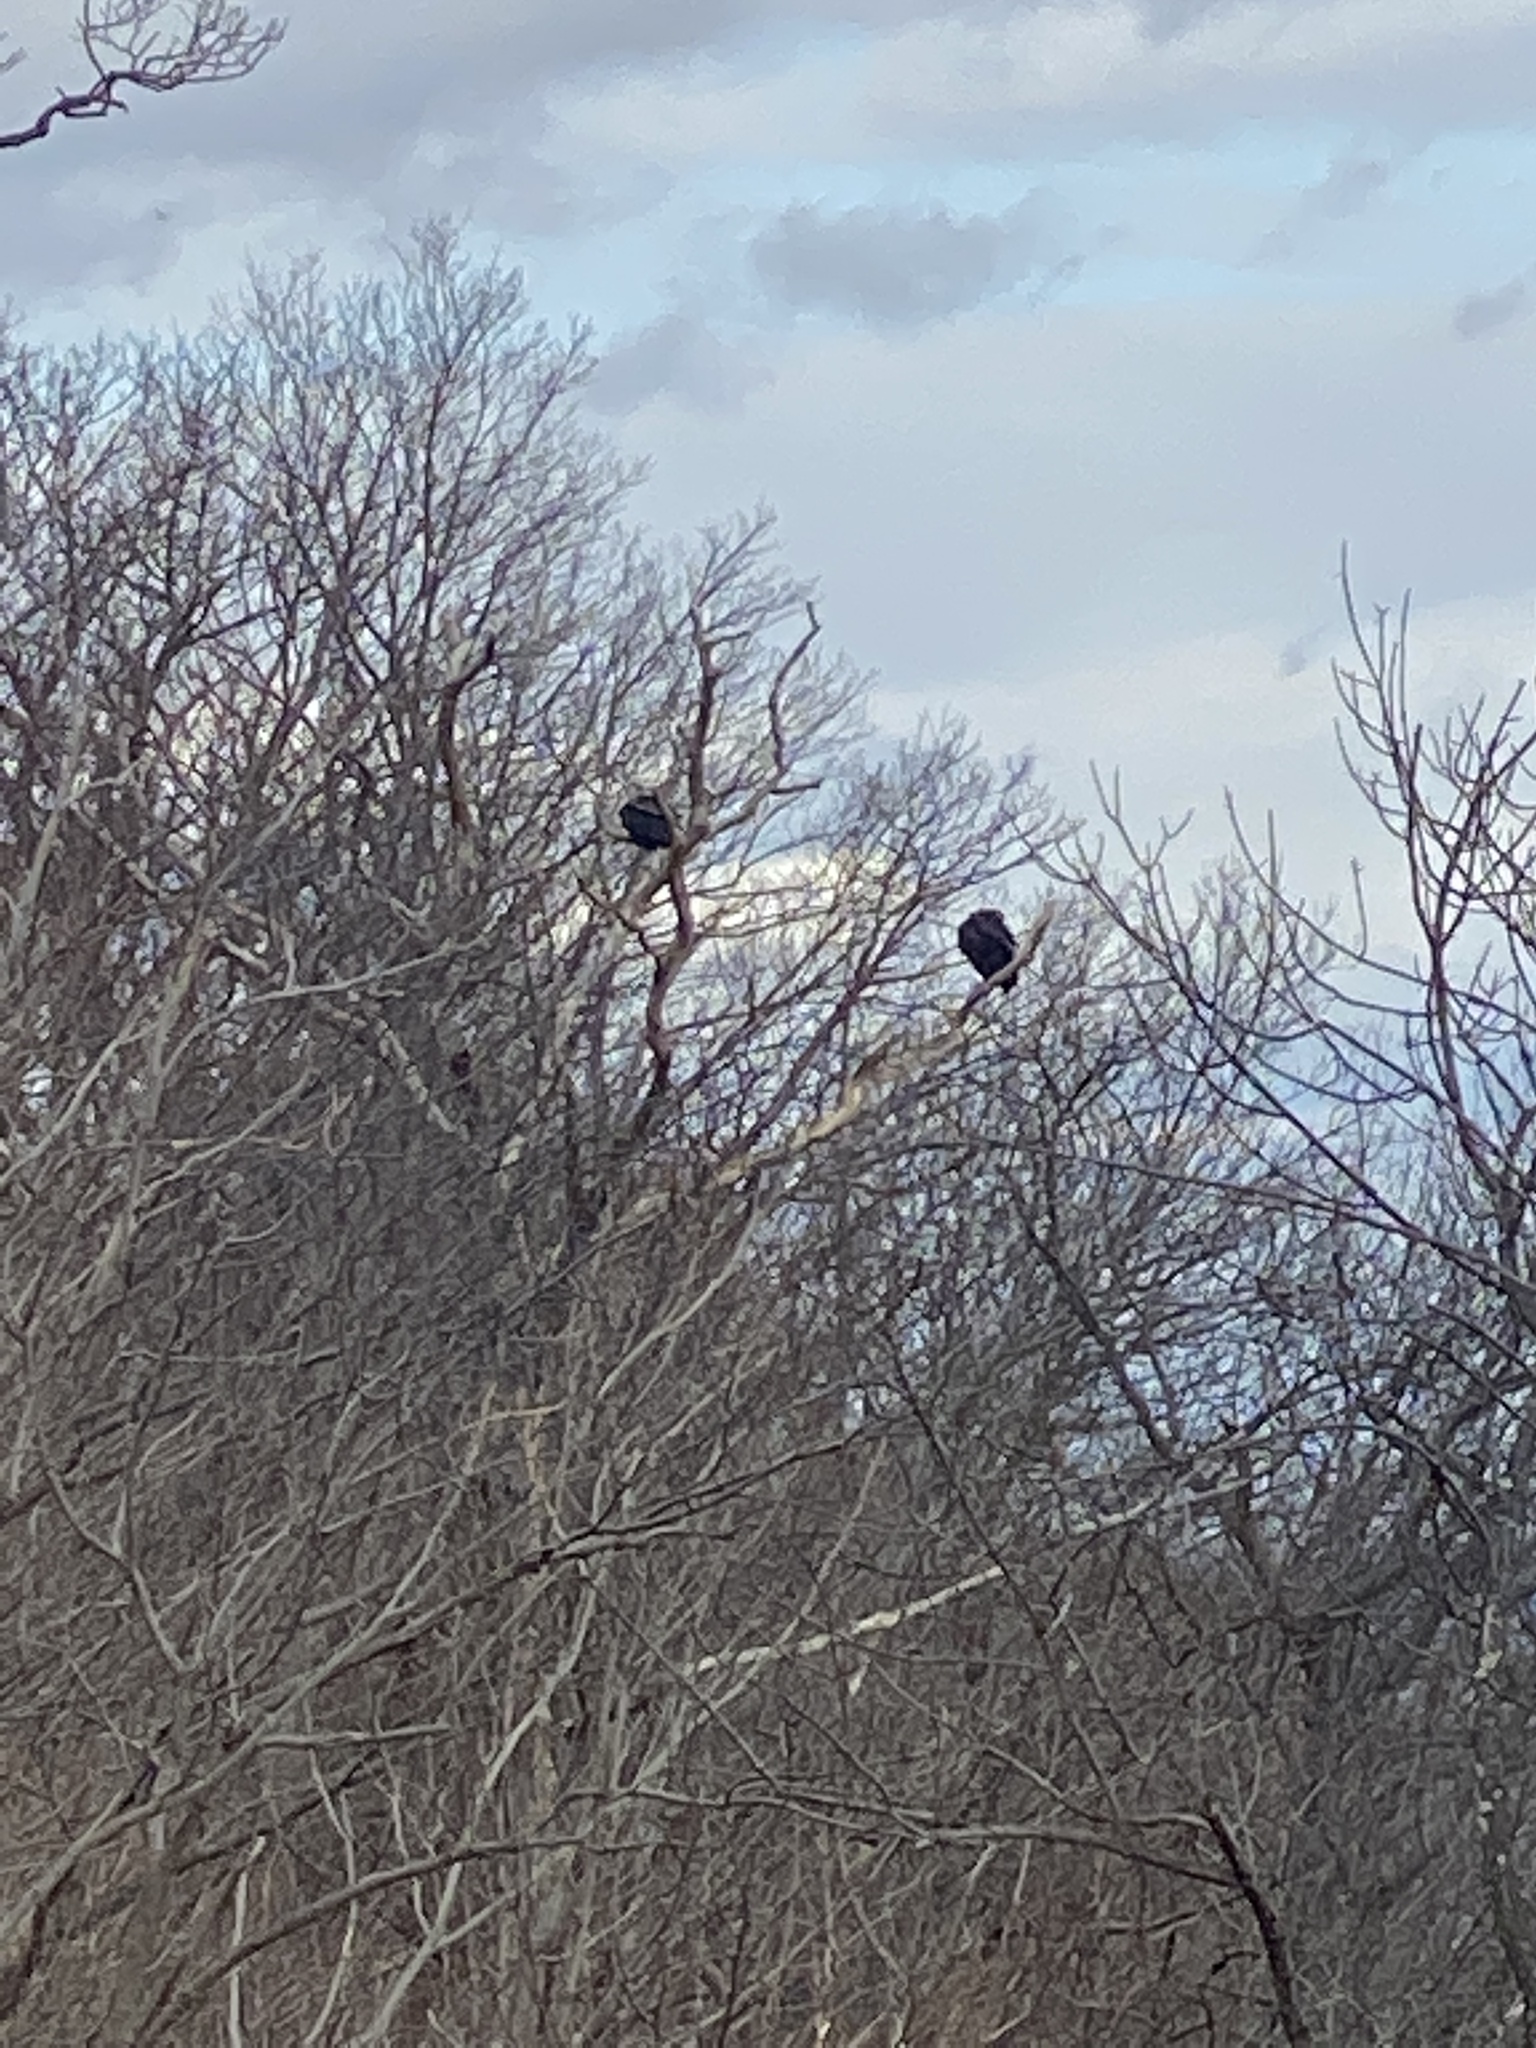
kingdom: Animalia
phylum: Chordata
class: Aves
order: Accipitriformes
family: Cathartidae
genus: Coragyps
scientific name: Coragyps atratus
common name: Black vulture
